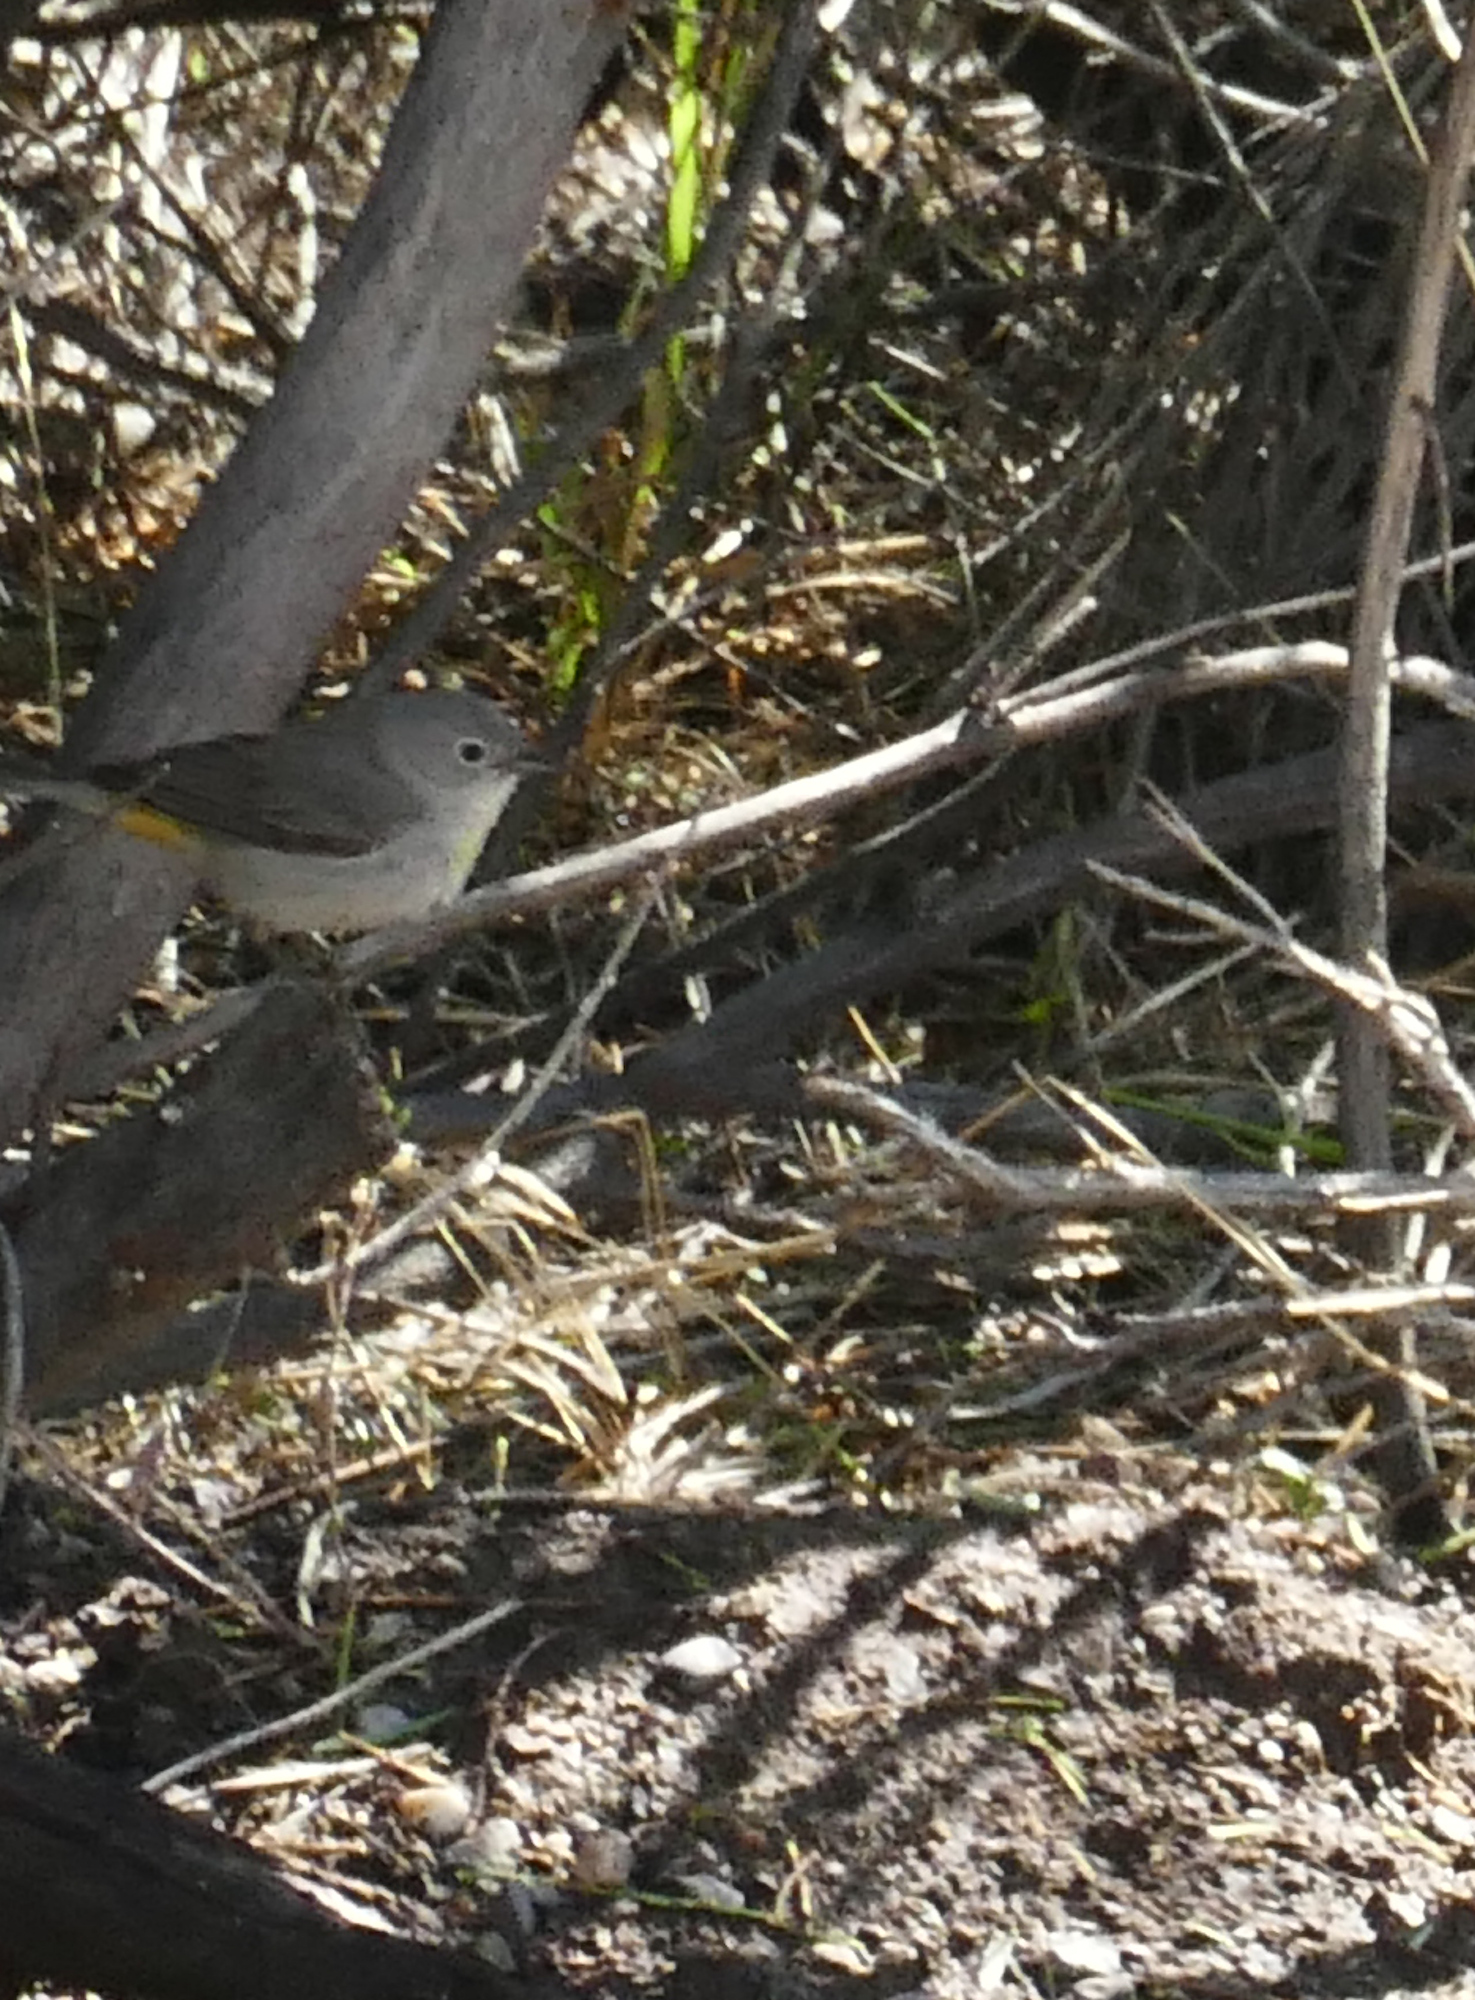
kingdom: Animalia
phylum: Chordata
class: Aves
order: Passeriformes
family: Parulidae
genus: Leiothlypis
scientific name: Leiothlypis virginiae
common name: Virginia's warbler
